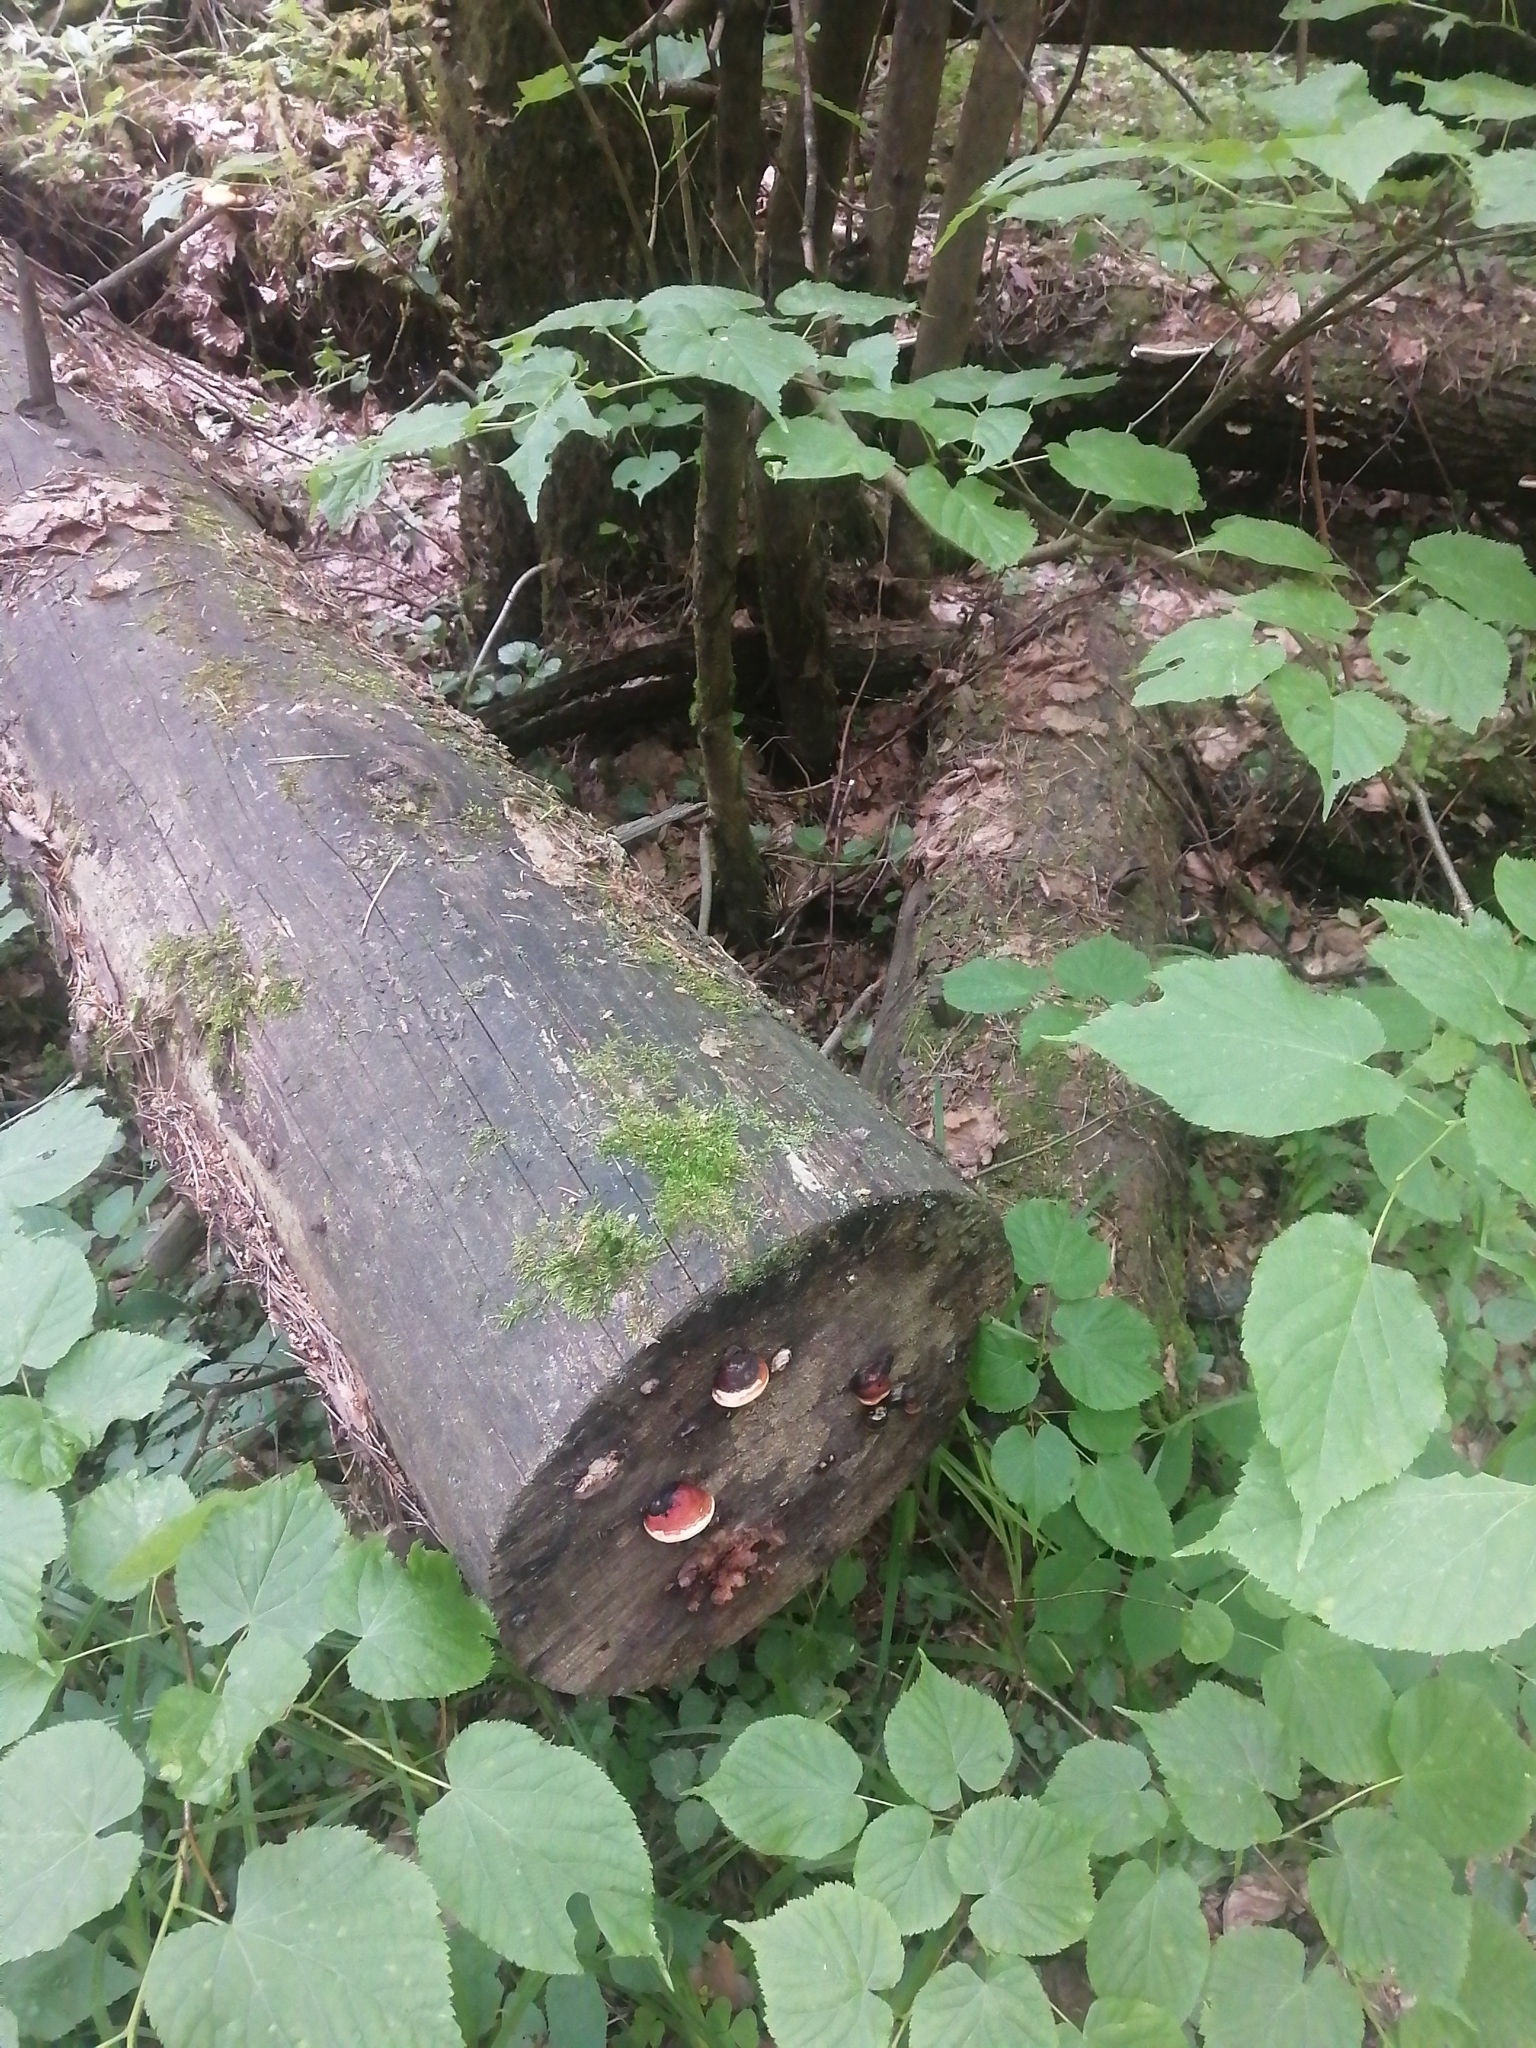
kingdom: Fungi
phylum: Basidiomycota
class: Agaricomycetes
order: Polyporales
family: Fomitopsidaceae
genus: Fomitopsis
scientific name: Fomitopsis pinicola
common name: Red-belted bracket
